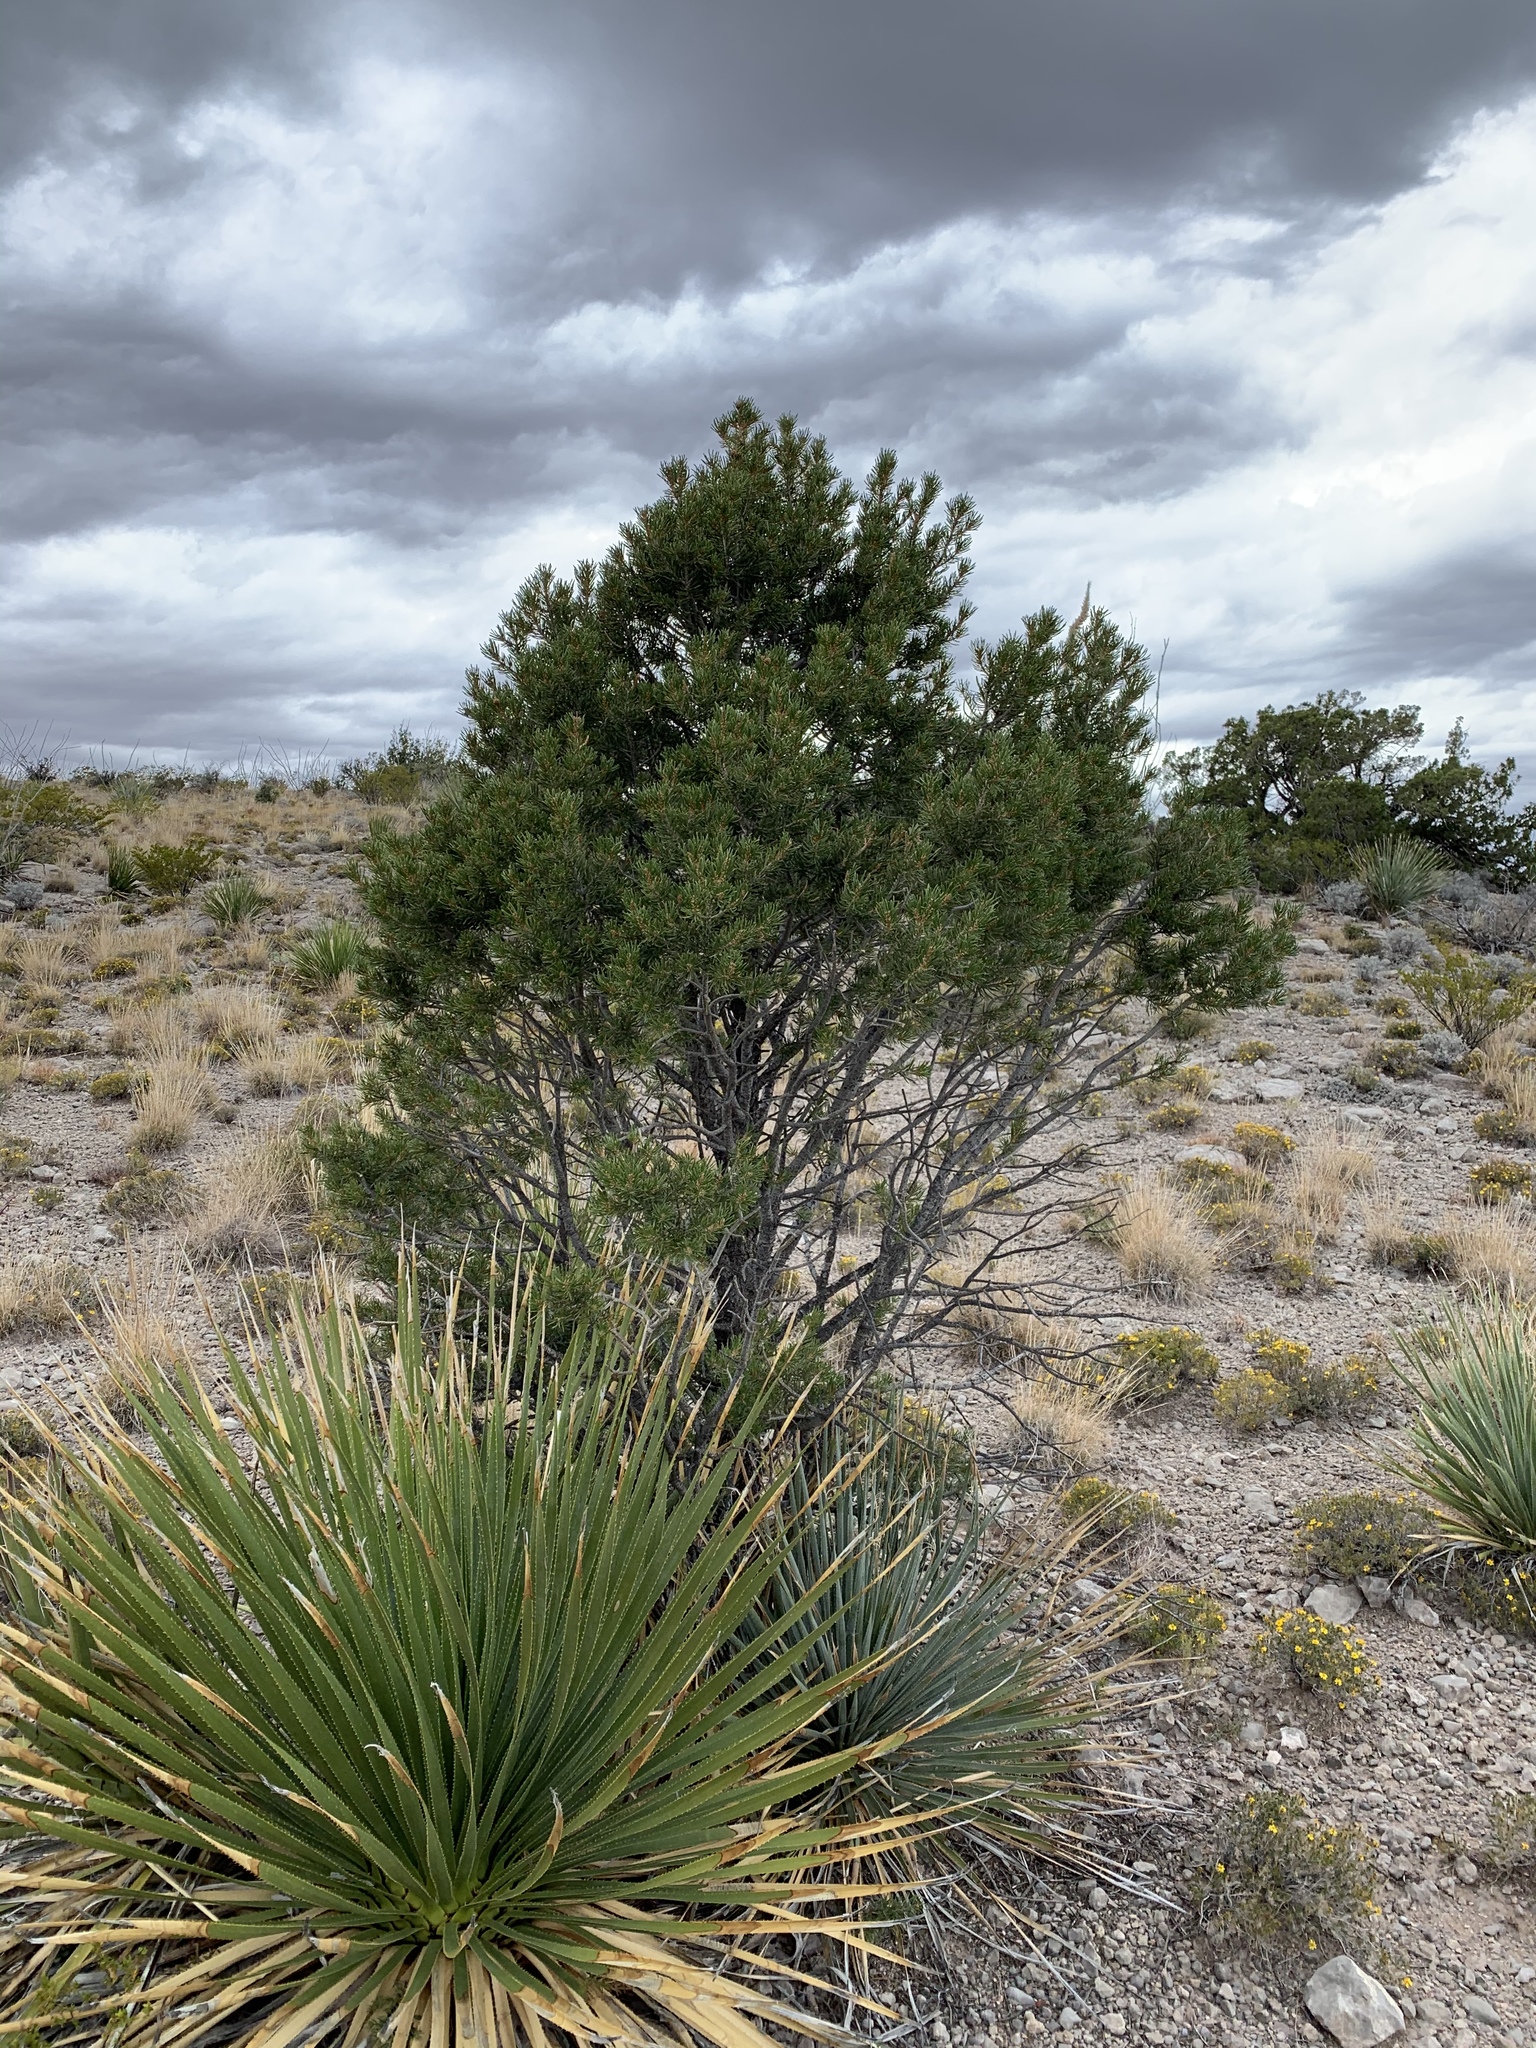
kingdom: Plantae
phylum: Tracheophyta
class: Pinopsida
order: Pinales
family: Pinaceae
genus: Pinus
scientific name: Pinus edulis
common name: Colorado pinyon
